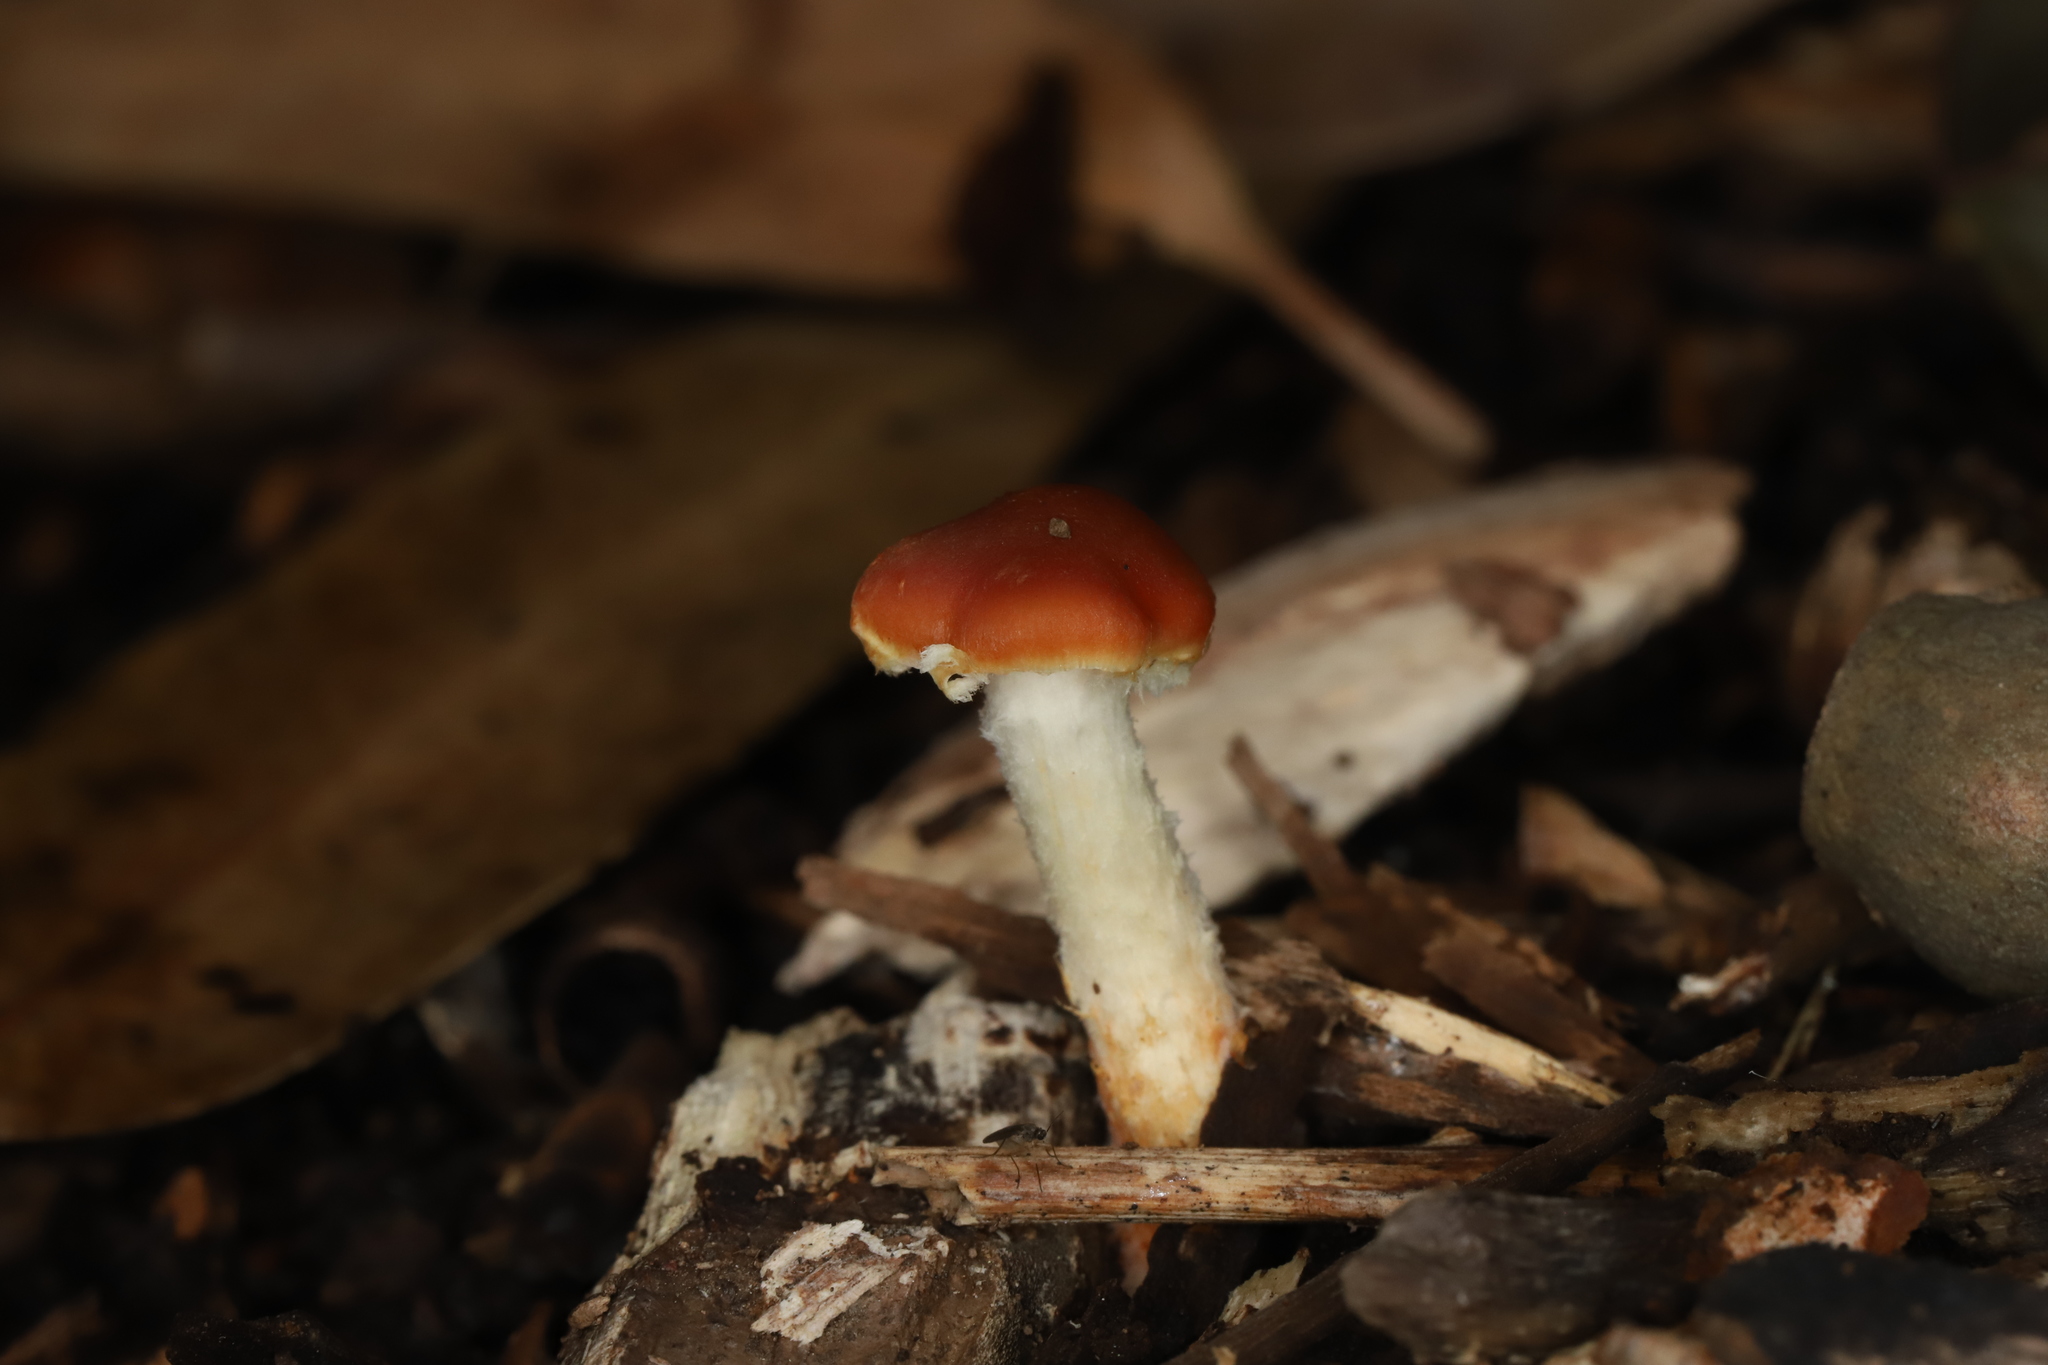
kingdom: Fungi
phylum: Basidiomycota
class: Agaricomycetes
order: Agaricales
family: Strophariaceae
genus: Leratiomyces
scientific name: Leratiomyces ceres
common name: Redlead roundhead
